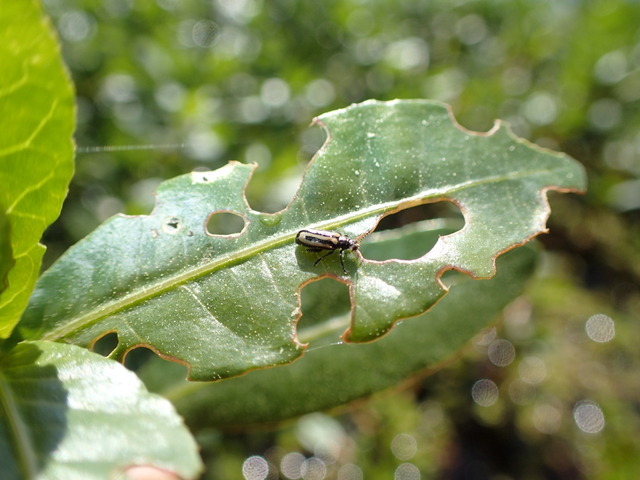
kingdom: Animalia
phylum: Arthropoda
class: Insecta
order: Coleoptera
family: Chrysomelidae
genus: Agasicles
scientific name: Agasicles hygrophila
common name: Alligatorweed flea beetle
